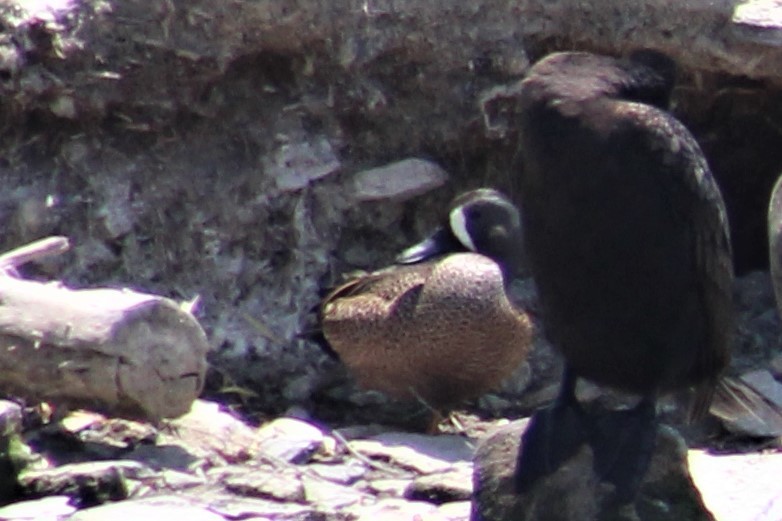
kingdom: Animalia
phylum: Chordata
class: Aves
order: Anseriformes
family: Anatidae
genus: Spatula
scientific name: Spatula discors
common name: Blue-winged teal
